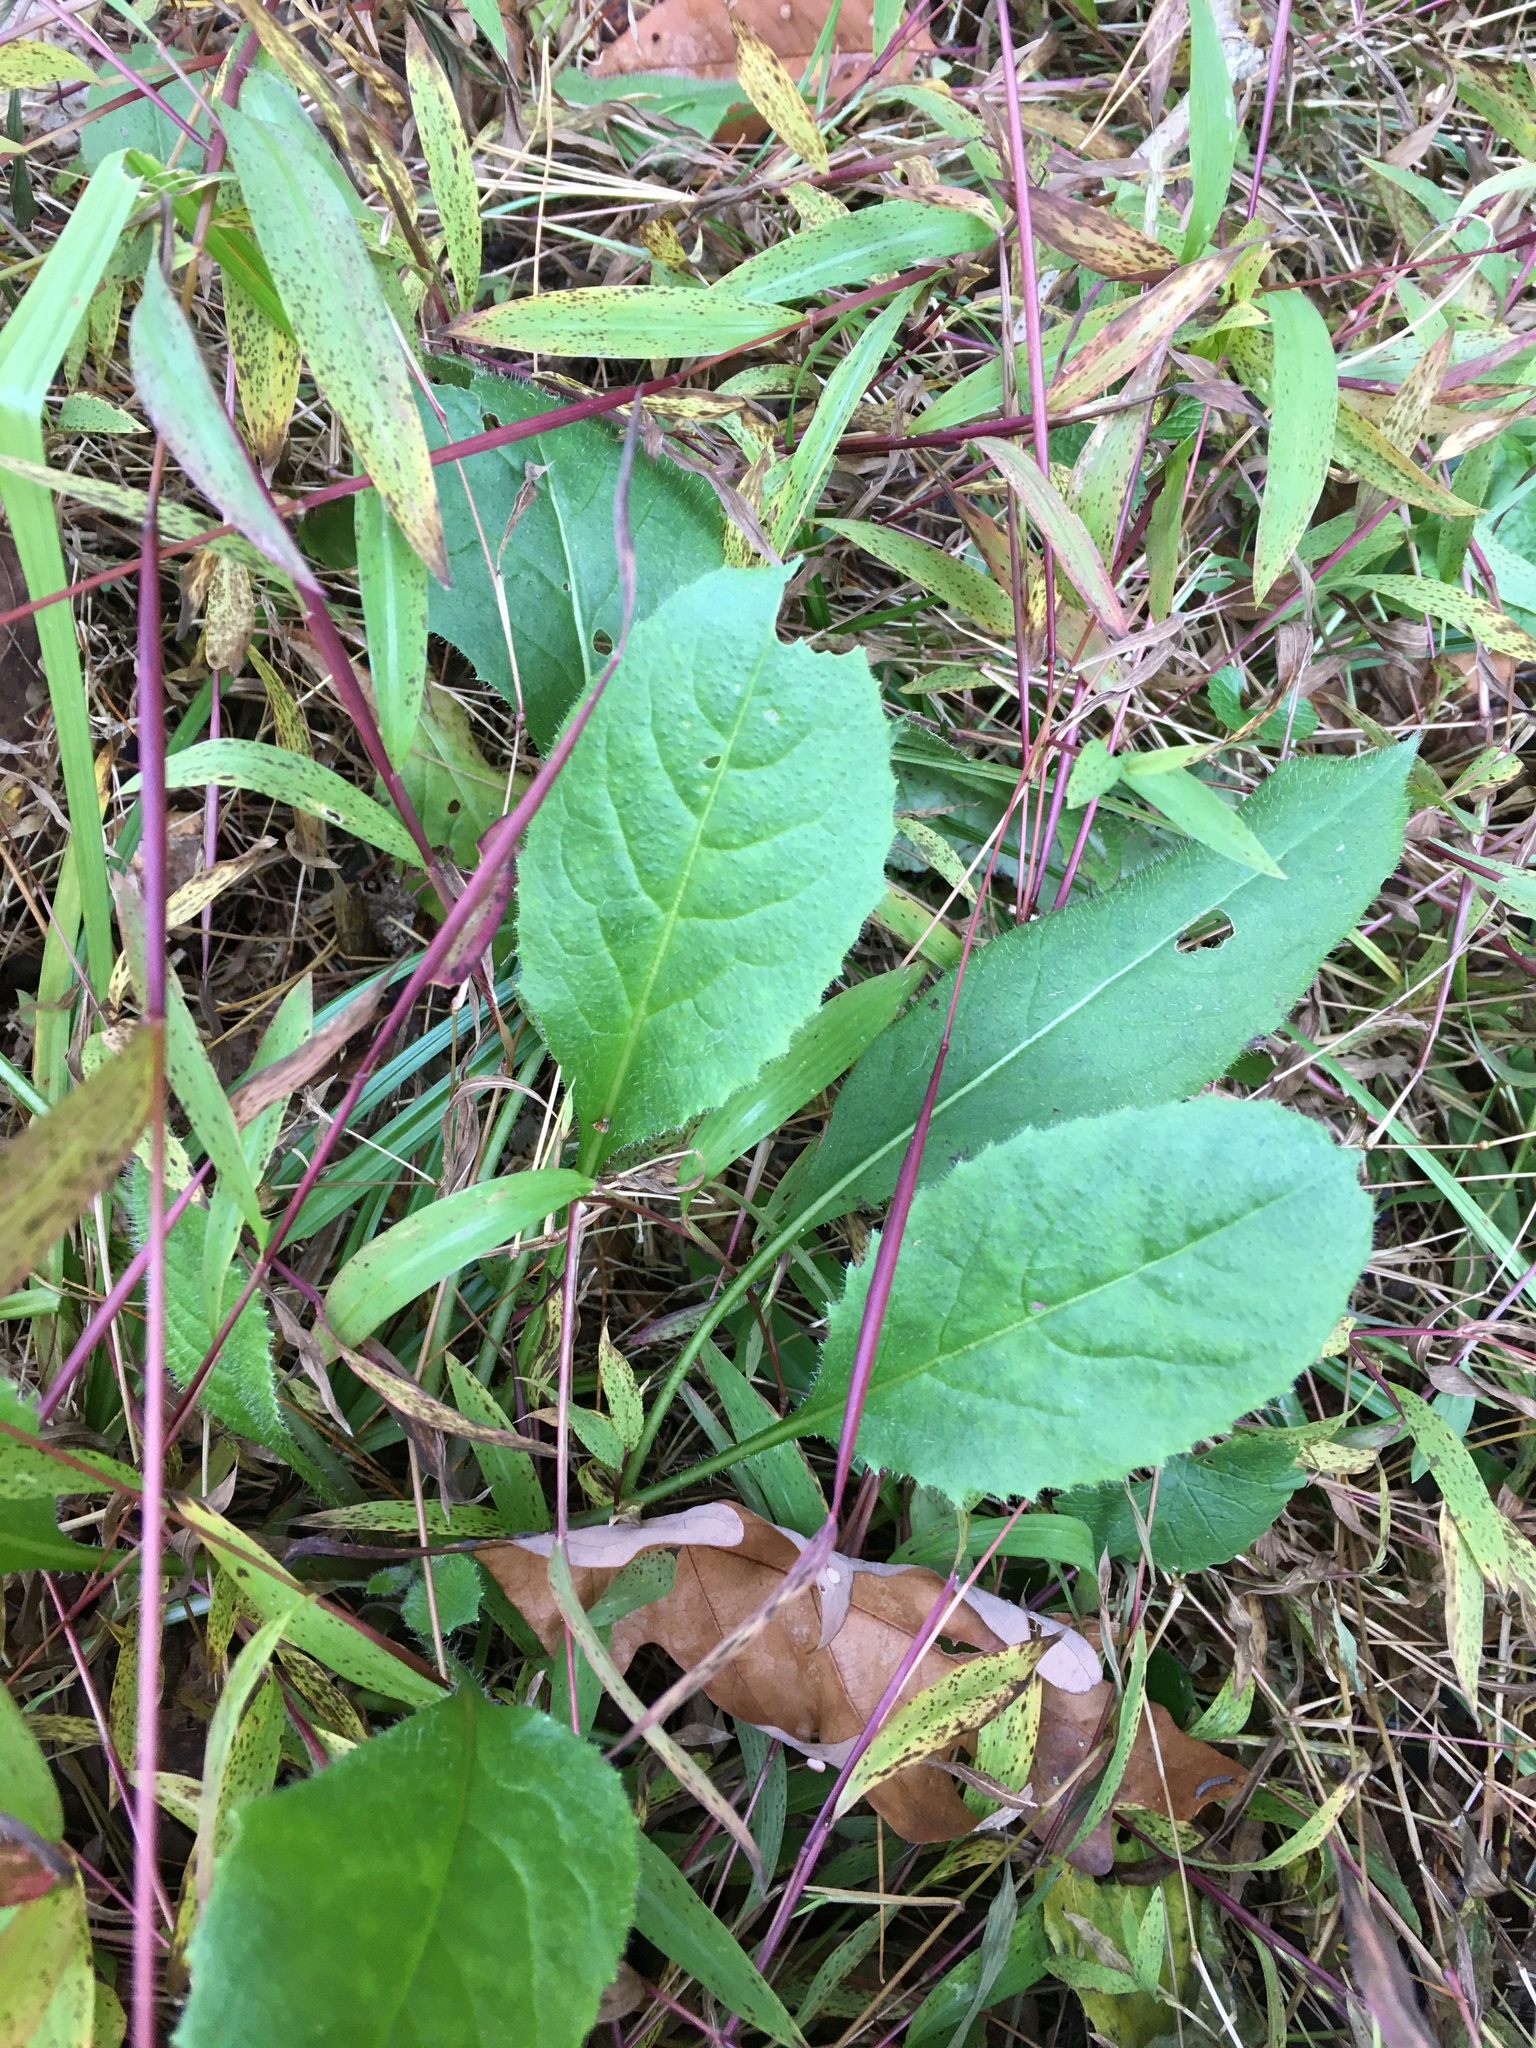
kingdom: Plantae
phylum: Tracheophyta
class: Magnoliopsida
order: Brassicales
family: Brassicaceae
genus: Hesperis
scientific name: Hesperis matronalis
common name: Dame's-violet
